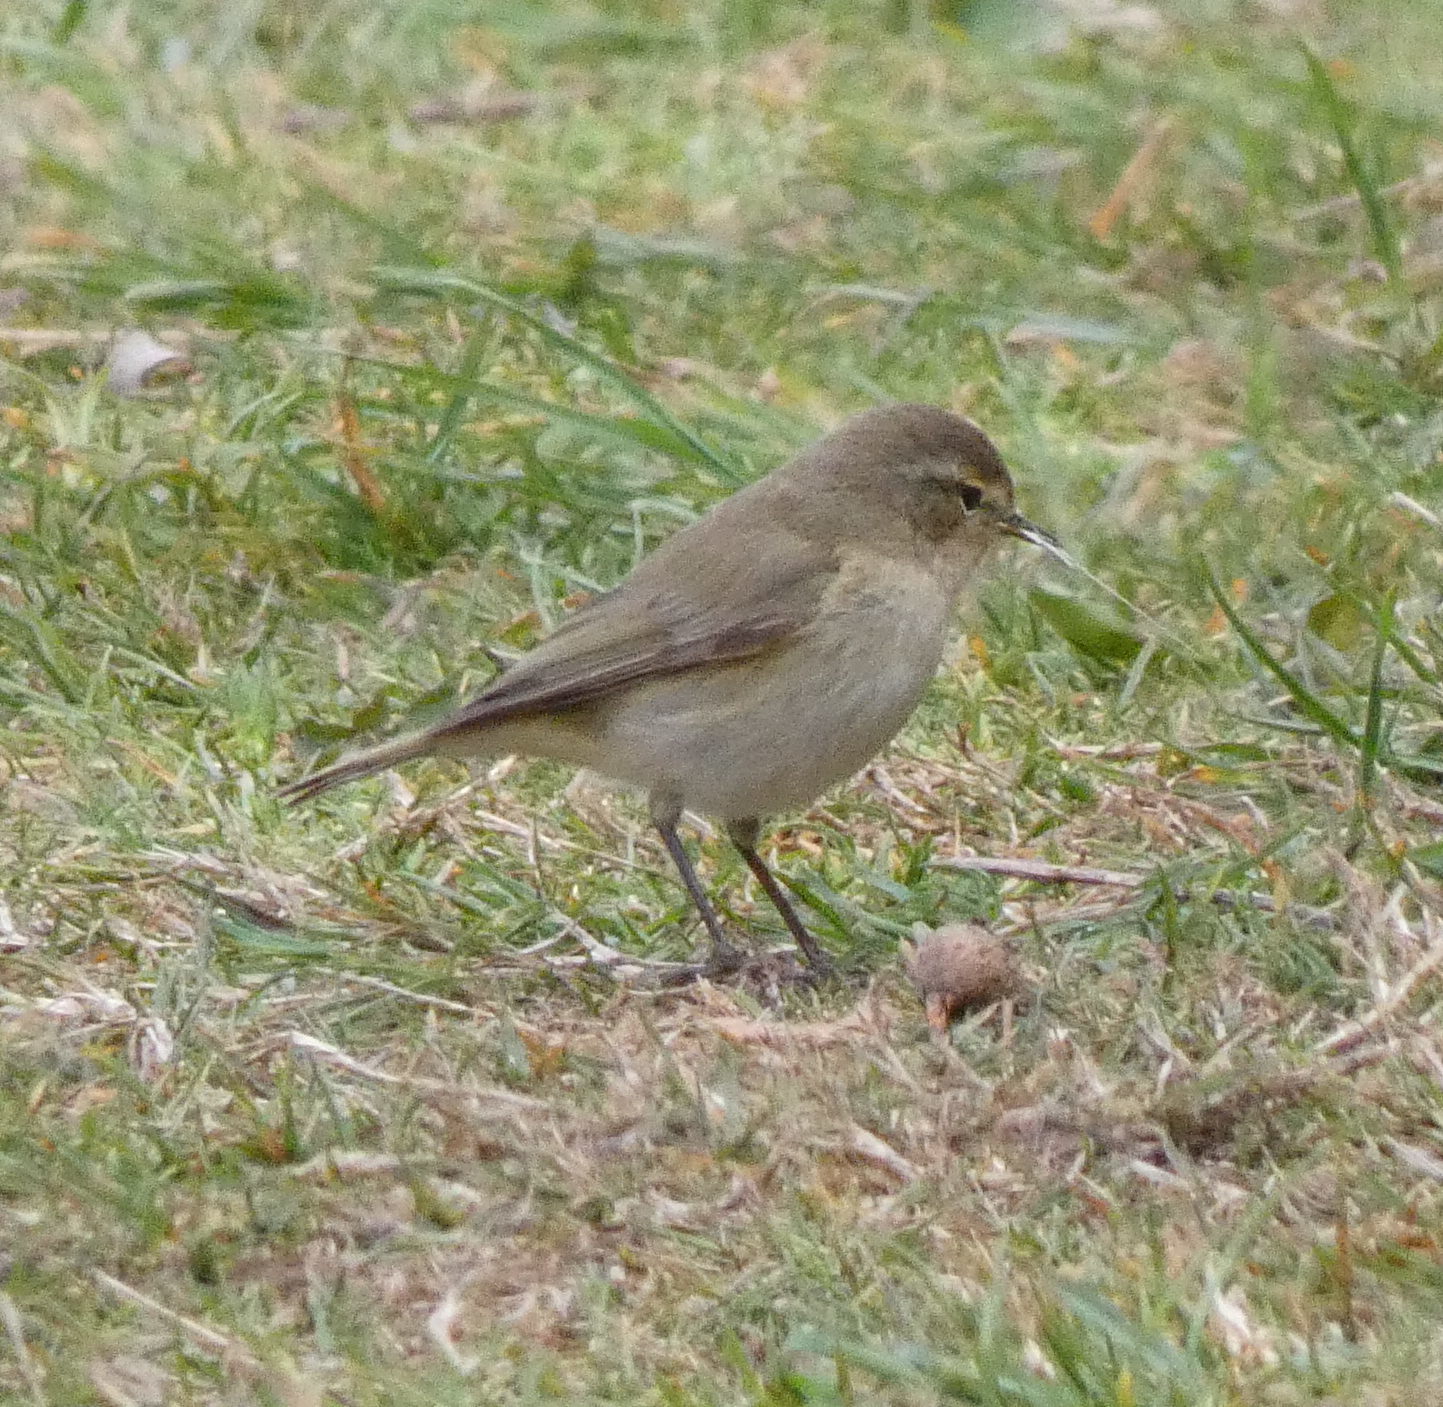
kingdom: Animalia
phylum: Chordata
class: Aves
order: Passeriformes
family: Phylloscopidae
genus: Phylloscopus
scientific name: Phylloscopus collybita
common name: Common chiffchaff
